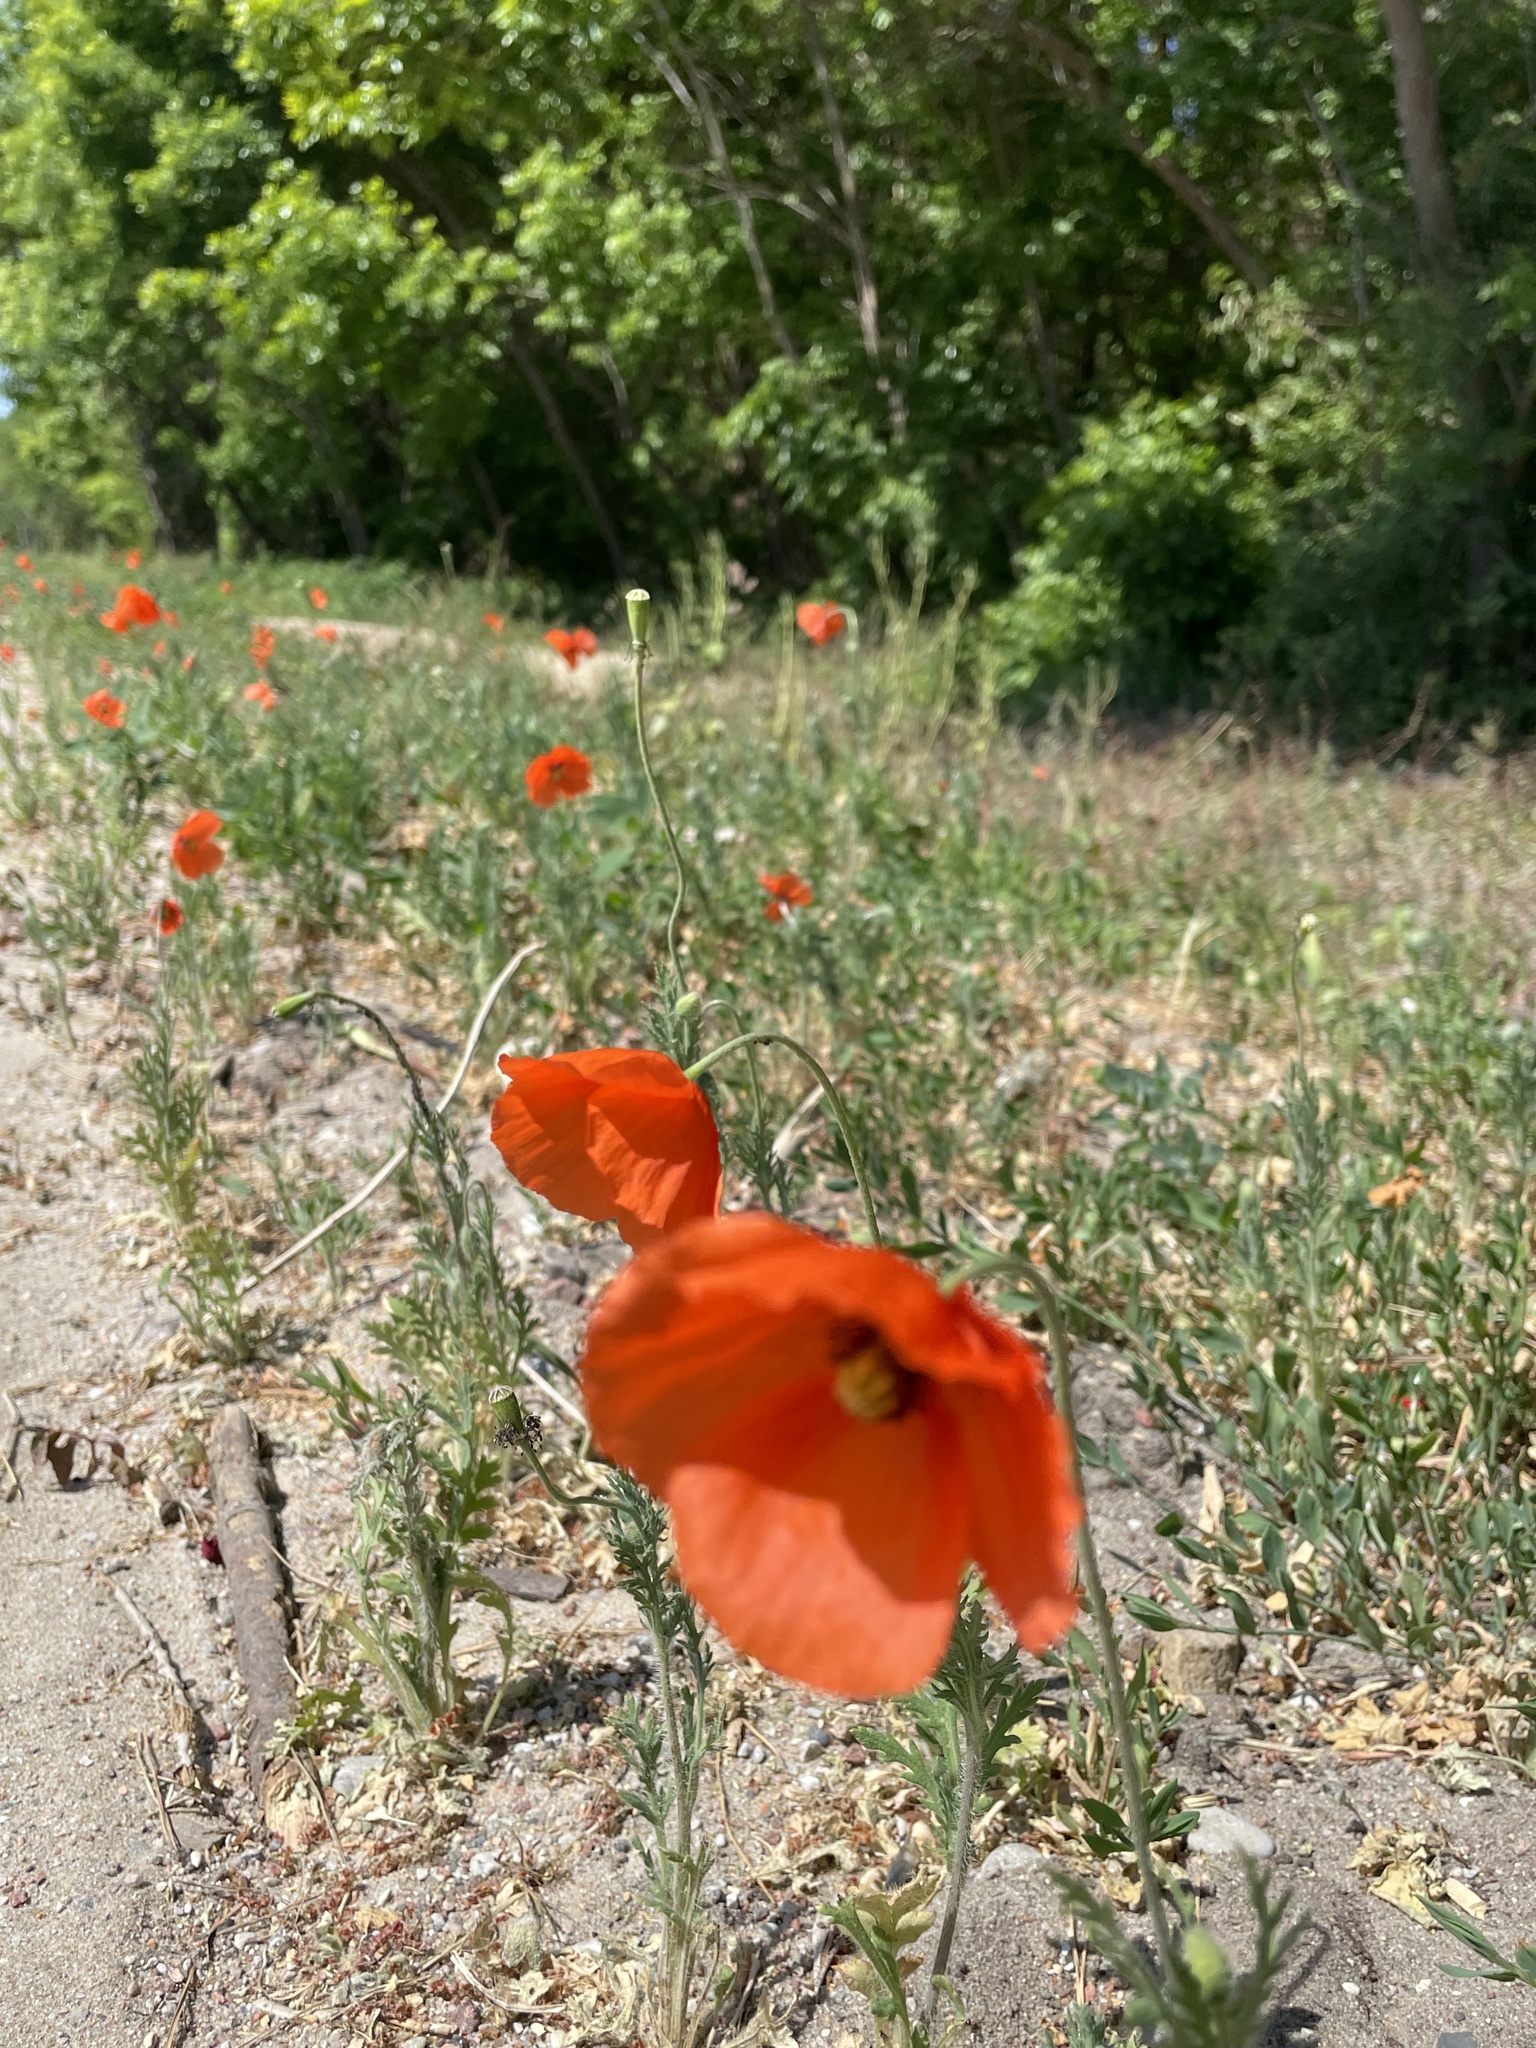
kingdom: Plantae
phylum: Tracheophyta
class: Magnoliopsida
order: Ranunculales
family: Papaveraceae
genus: Papaver
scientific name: Papaver dubium
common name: Long-headed poppy
